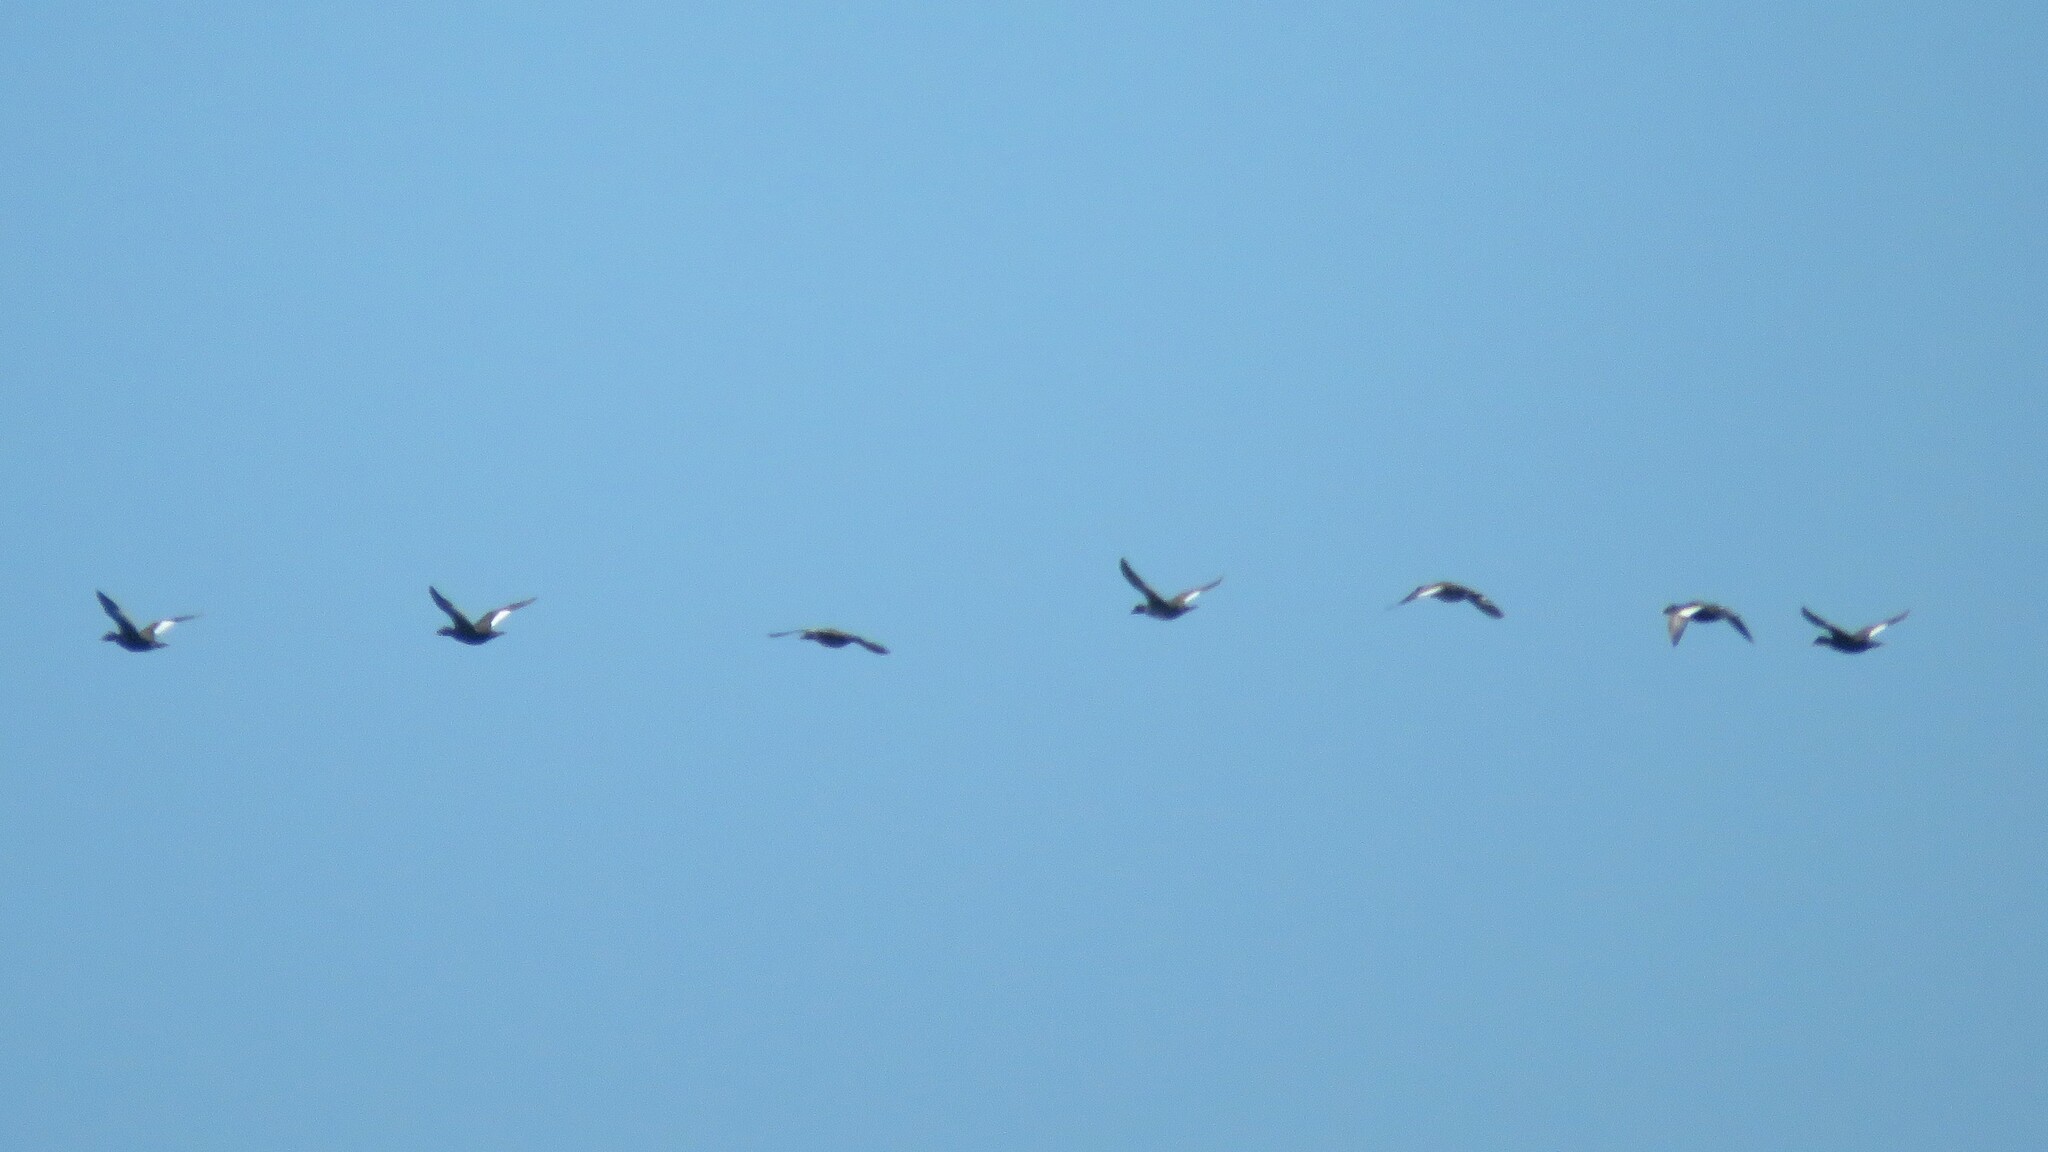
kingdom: Animalia
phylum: Chordata
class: Aves
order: Anseriformes
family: Anatidae
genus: Melanitta
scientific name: Melanitta deglandi
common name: White-winged scoter
